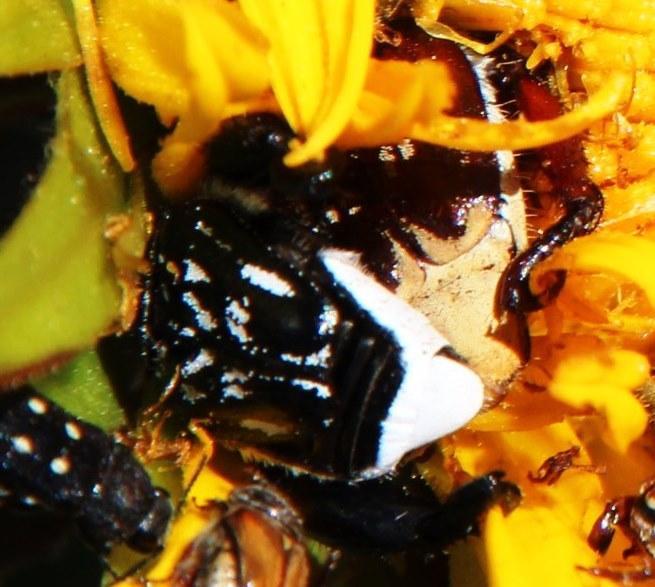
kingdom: Animalia
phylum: Arthropoda
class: Insecta
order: Coleoptera
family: Scarabaeidae
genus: Pachycnema
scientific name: Pachycnema crassipes
